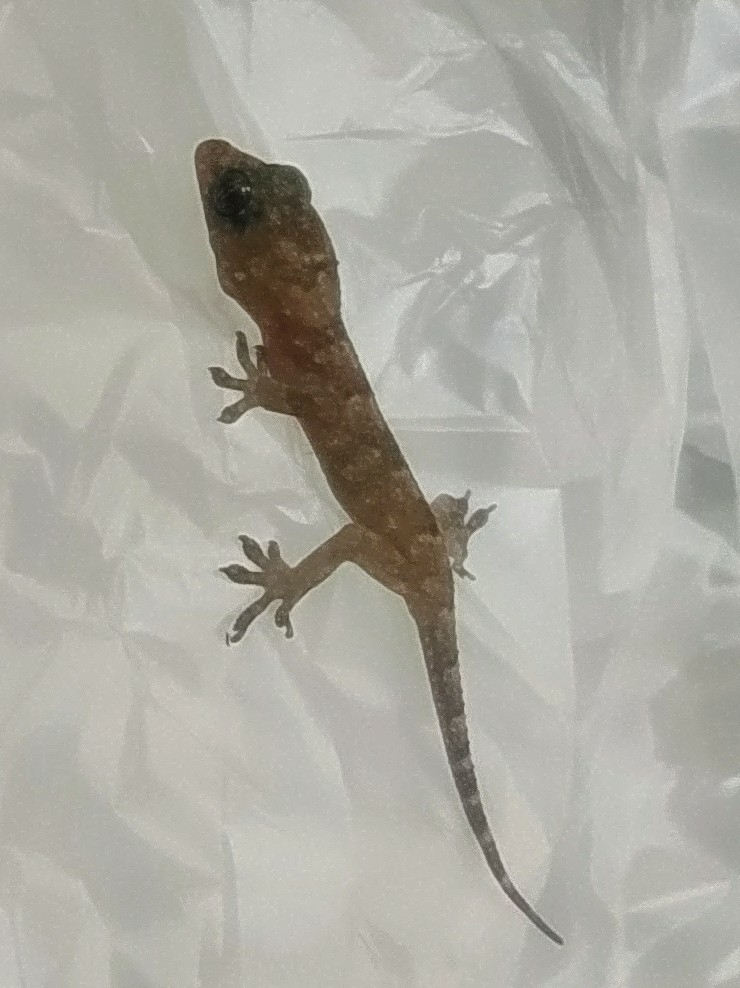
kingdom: Animalia
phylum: Chordata
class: Squamata
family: Gekkonidae
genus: Hemidactylus
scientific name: Hemidactylus mabouia
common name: House gecko
